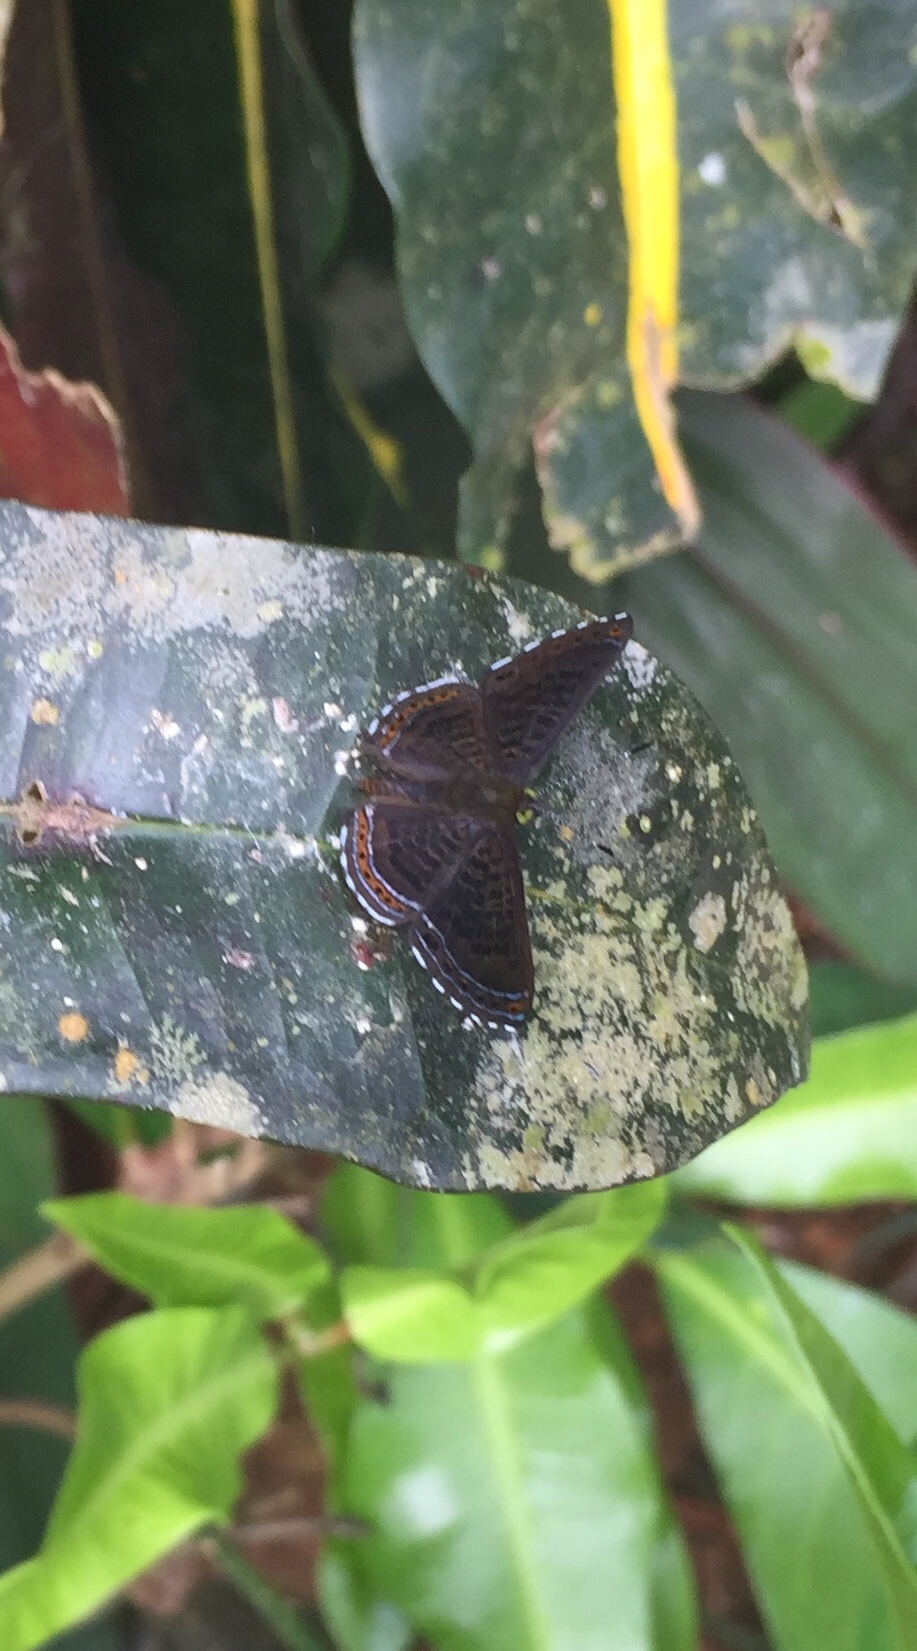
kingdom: Animalia
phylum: Arthropoda
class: Insecta
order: Lepidoptera
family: Riodinidae
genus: Detritivora
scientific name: Detritivora
